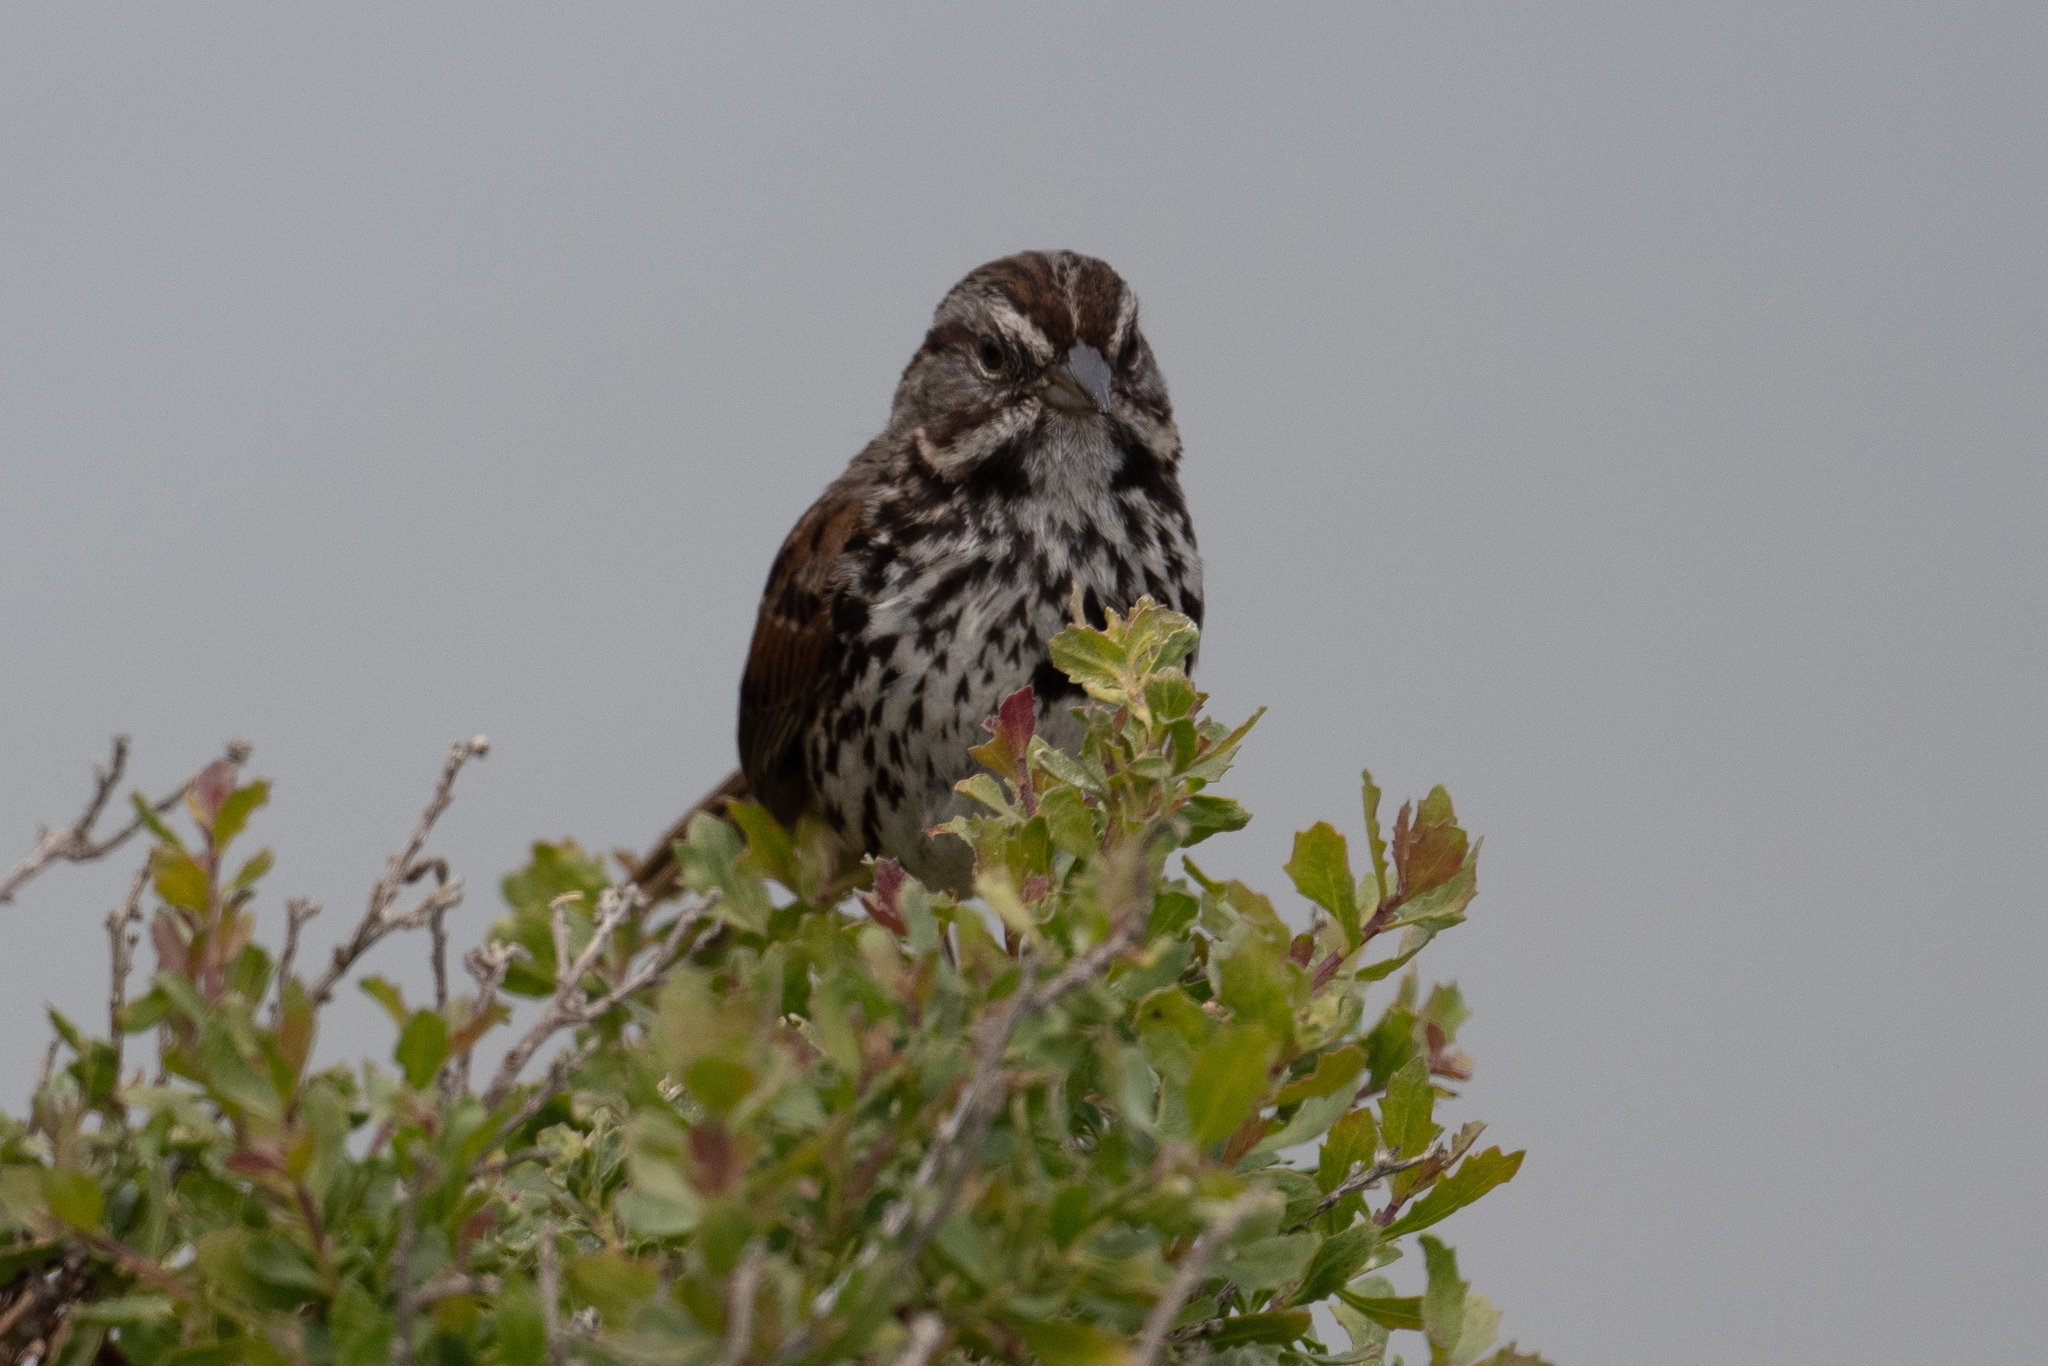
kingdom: Animalia
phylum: Chordata
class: Aves
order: Passeriformes
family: Passerellidae
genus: Melospiza
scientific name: Melospiza melodia
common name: Song sparrow
